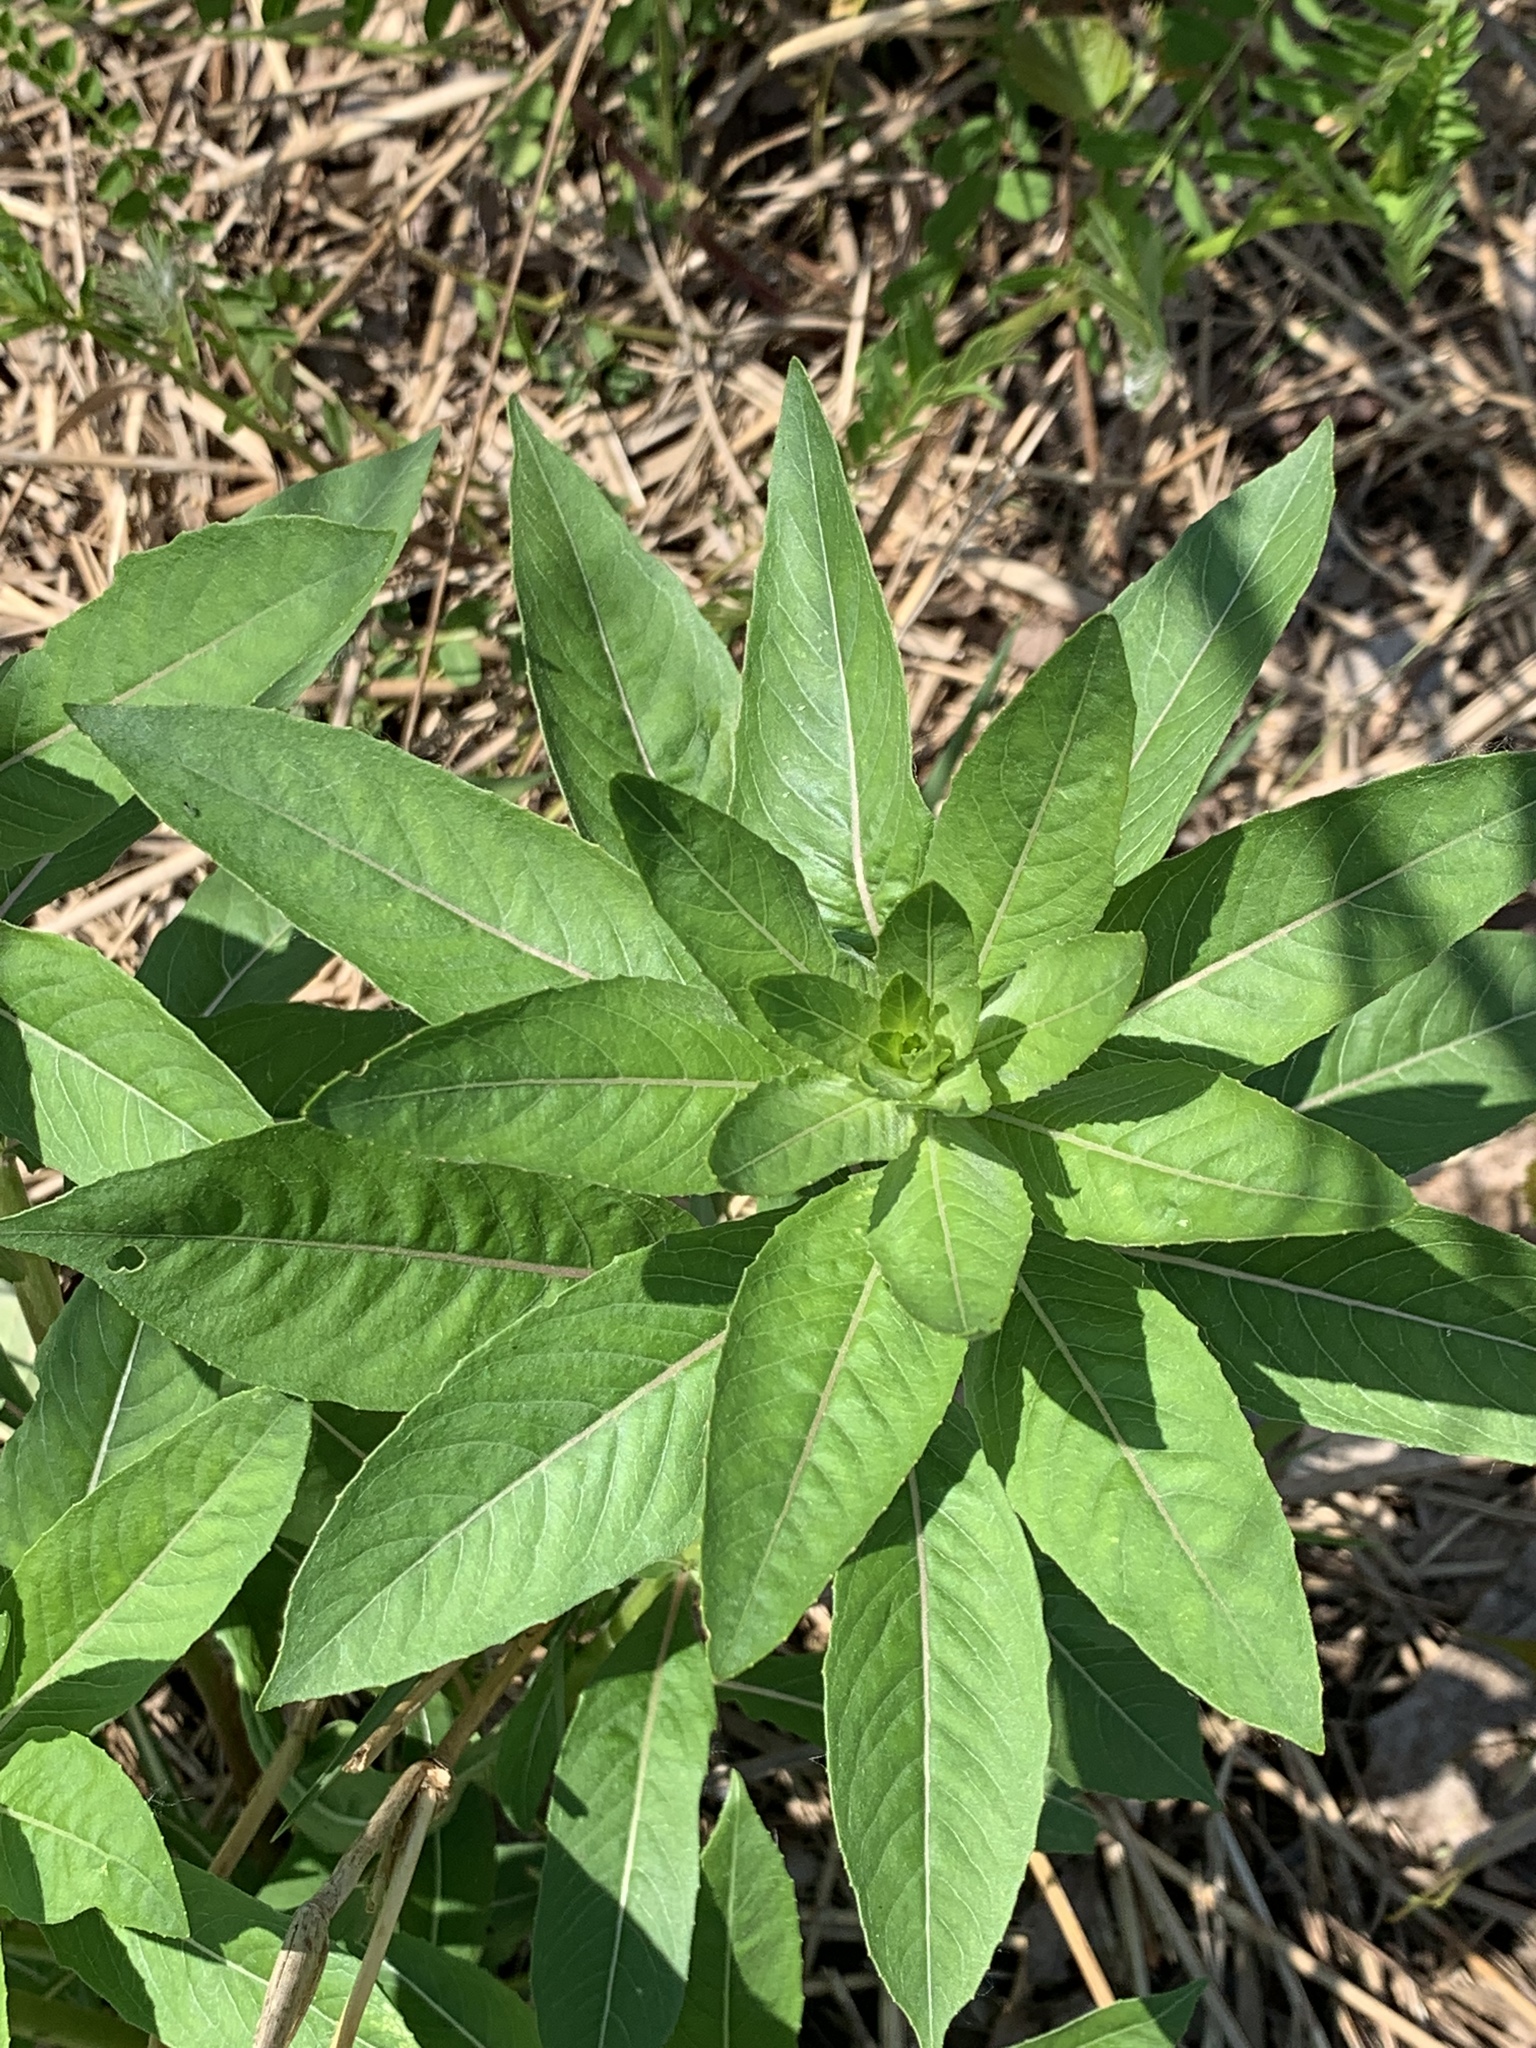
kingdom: Plantae
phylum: Tracheophyta
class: Magnoliopsida
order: Myrtales
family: Onagraceae
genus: Oenothera
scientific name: Oenothera biennis
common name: Common evening-primrose
